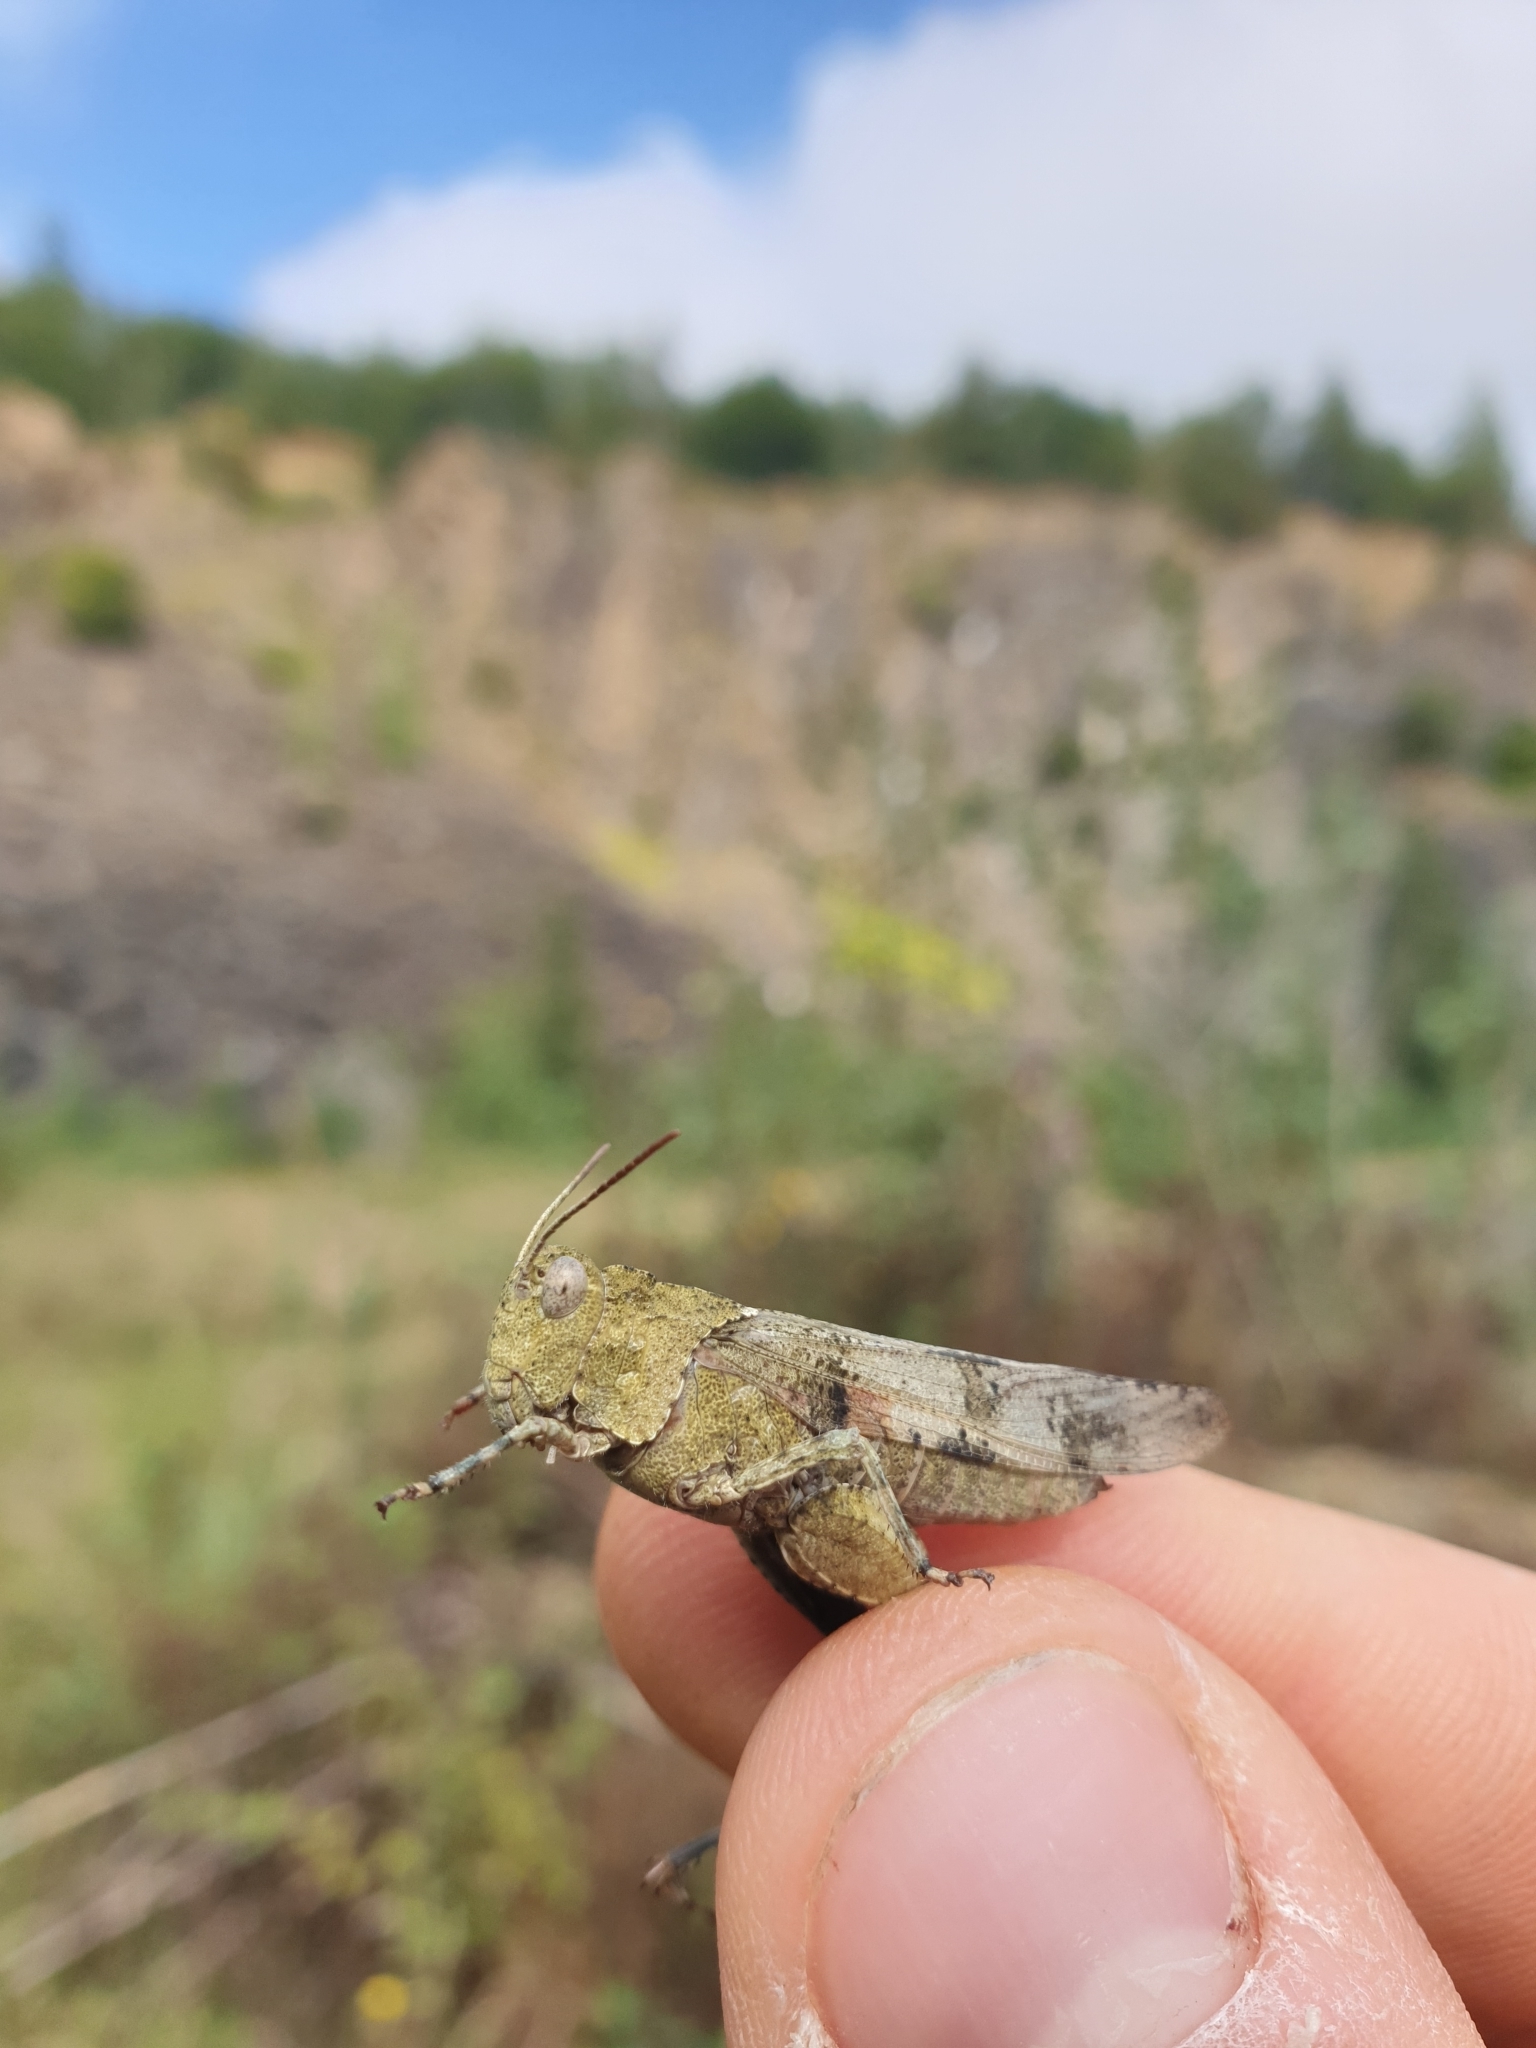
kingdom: Animalia
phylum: Arthropoda
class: Insecta
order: Orthoptera
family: Acrididae
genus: Oedipoda
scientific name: Oedipoda caerulescens
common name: Blue-winged grasshopper
